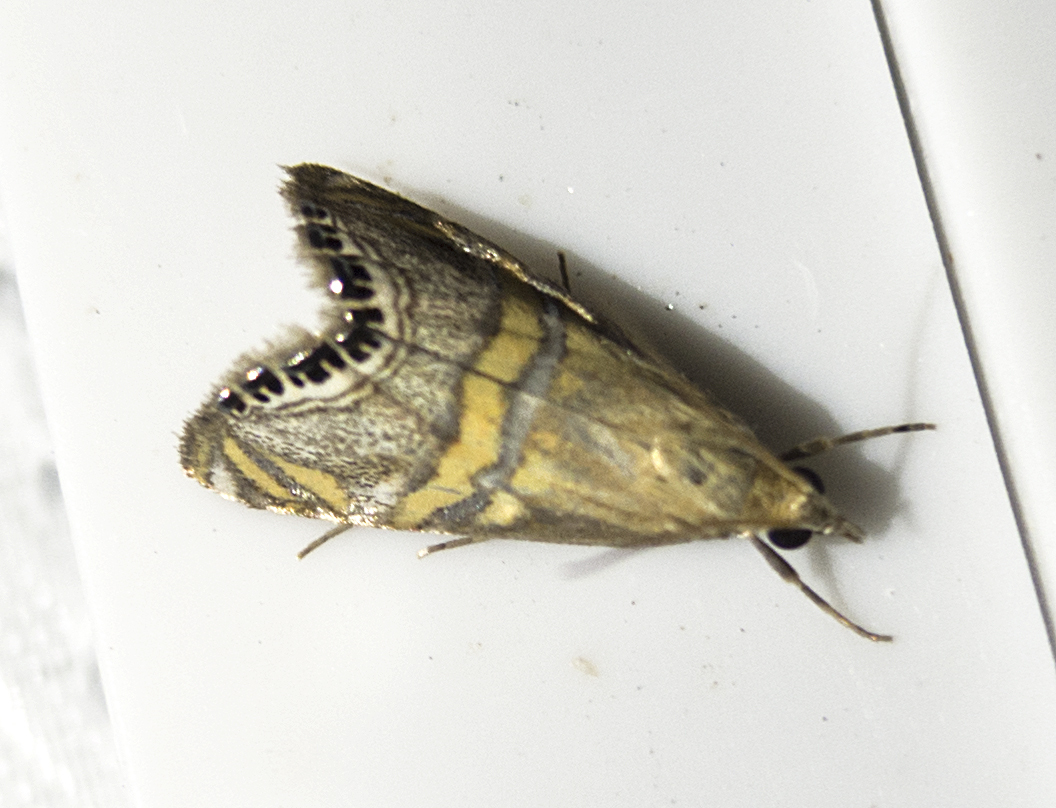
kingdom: Animalia
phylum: Arthropoda
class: Insecta
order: Lepidoptera
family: Crambidae
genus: Euchromius
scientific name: Euchromius bella
